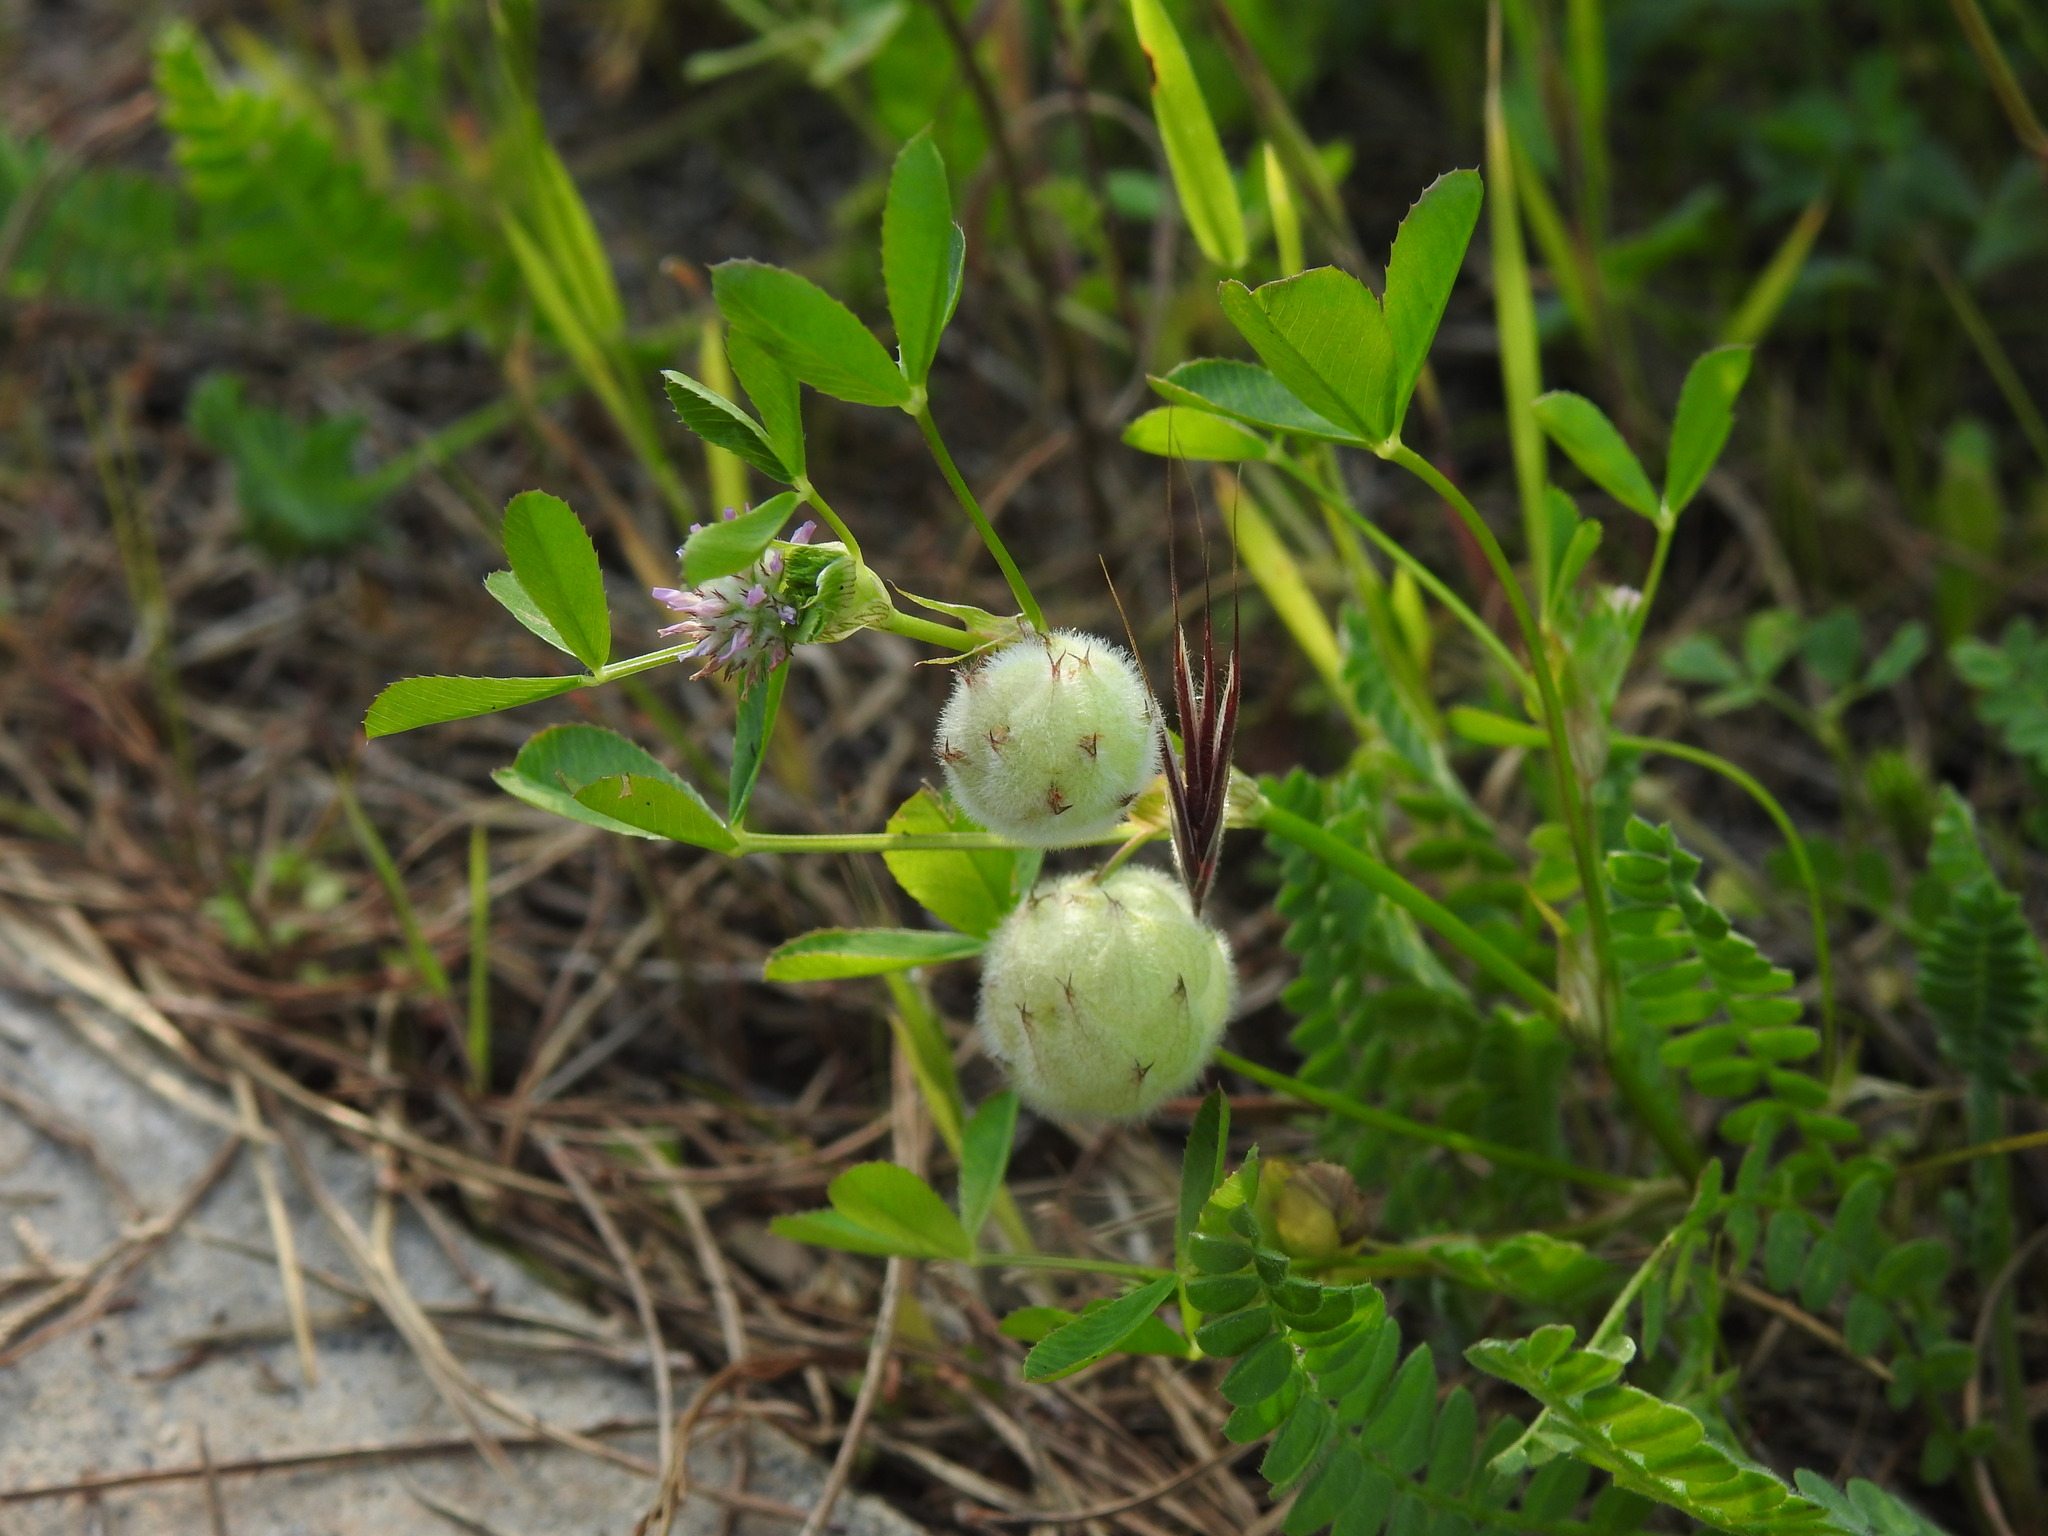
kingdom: Plantae
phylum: Tracheophyta
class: Magnoliopsida
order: Fabales
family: Fabaceae
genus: Trifolium
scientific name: Trifolium tomentosum
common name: Woolly clover
